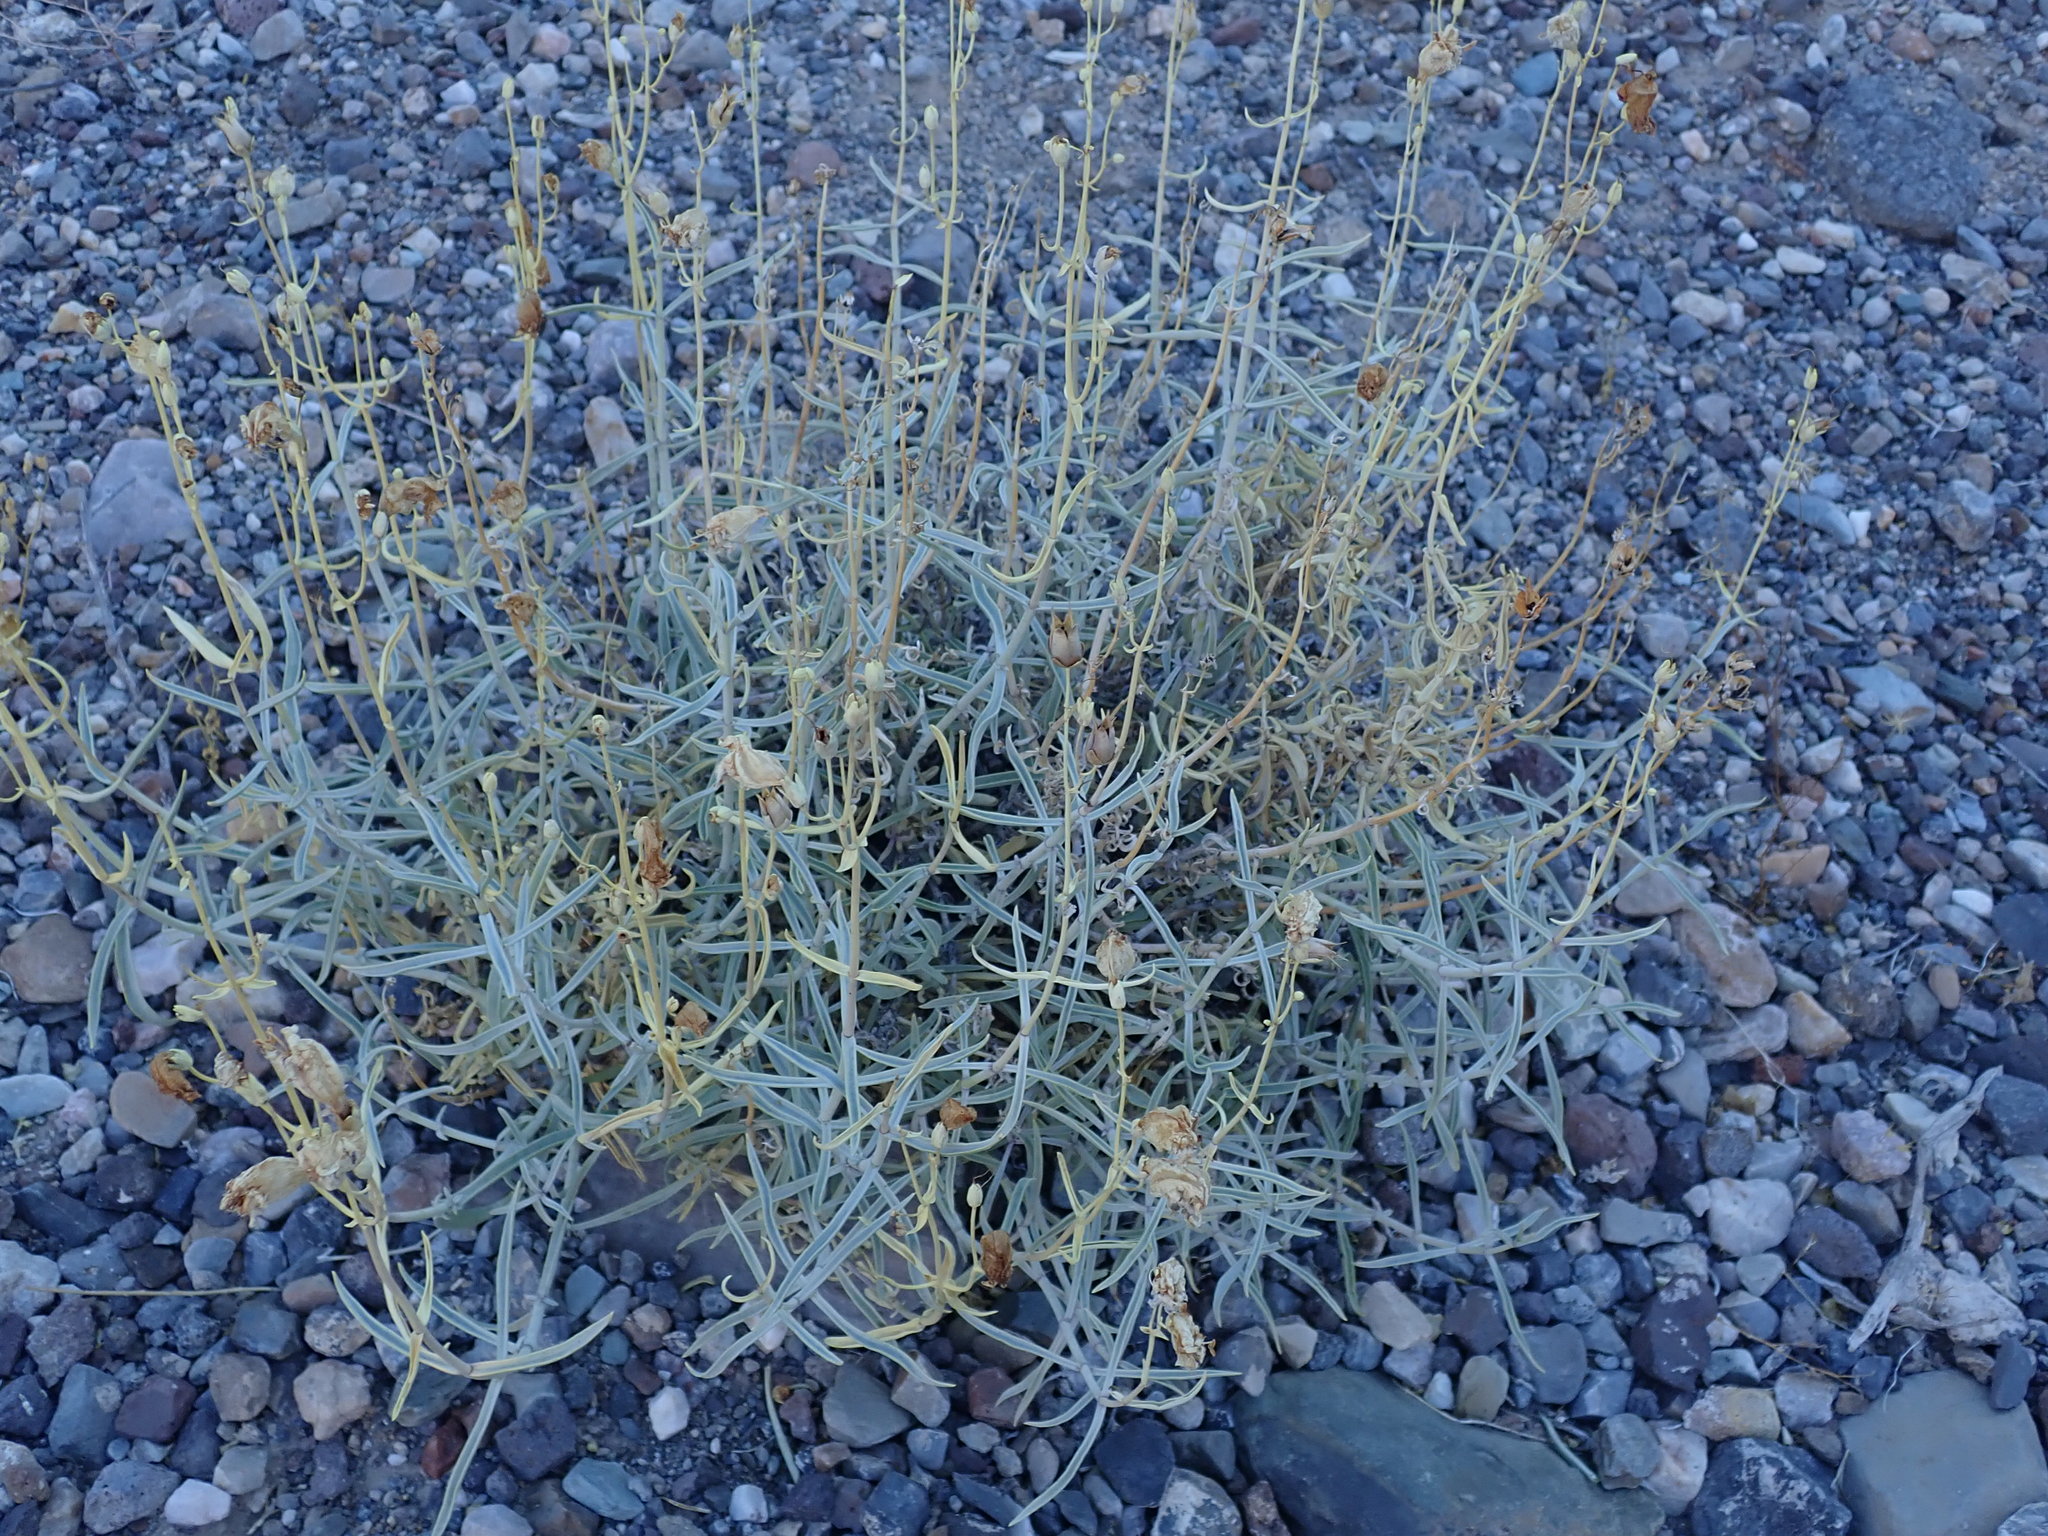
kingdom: Plantae
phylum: Tracheophyta
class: Magnoliopsida
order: Lamiales
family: Plantaginaceae
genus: Penstemon
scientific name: Penstemon fruticiformis
